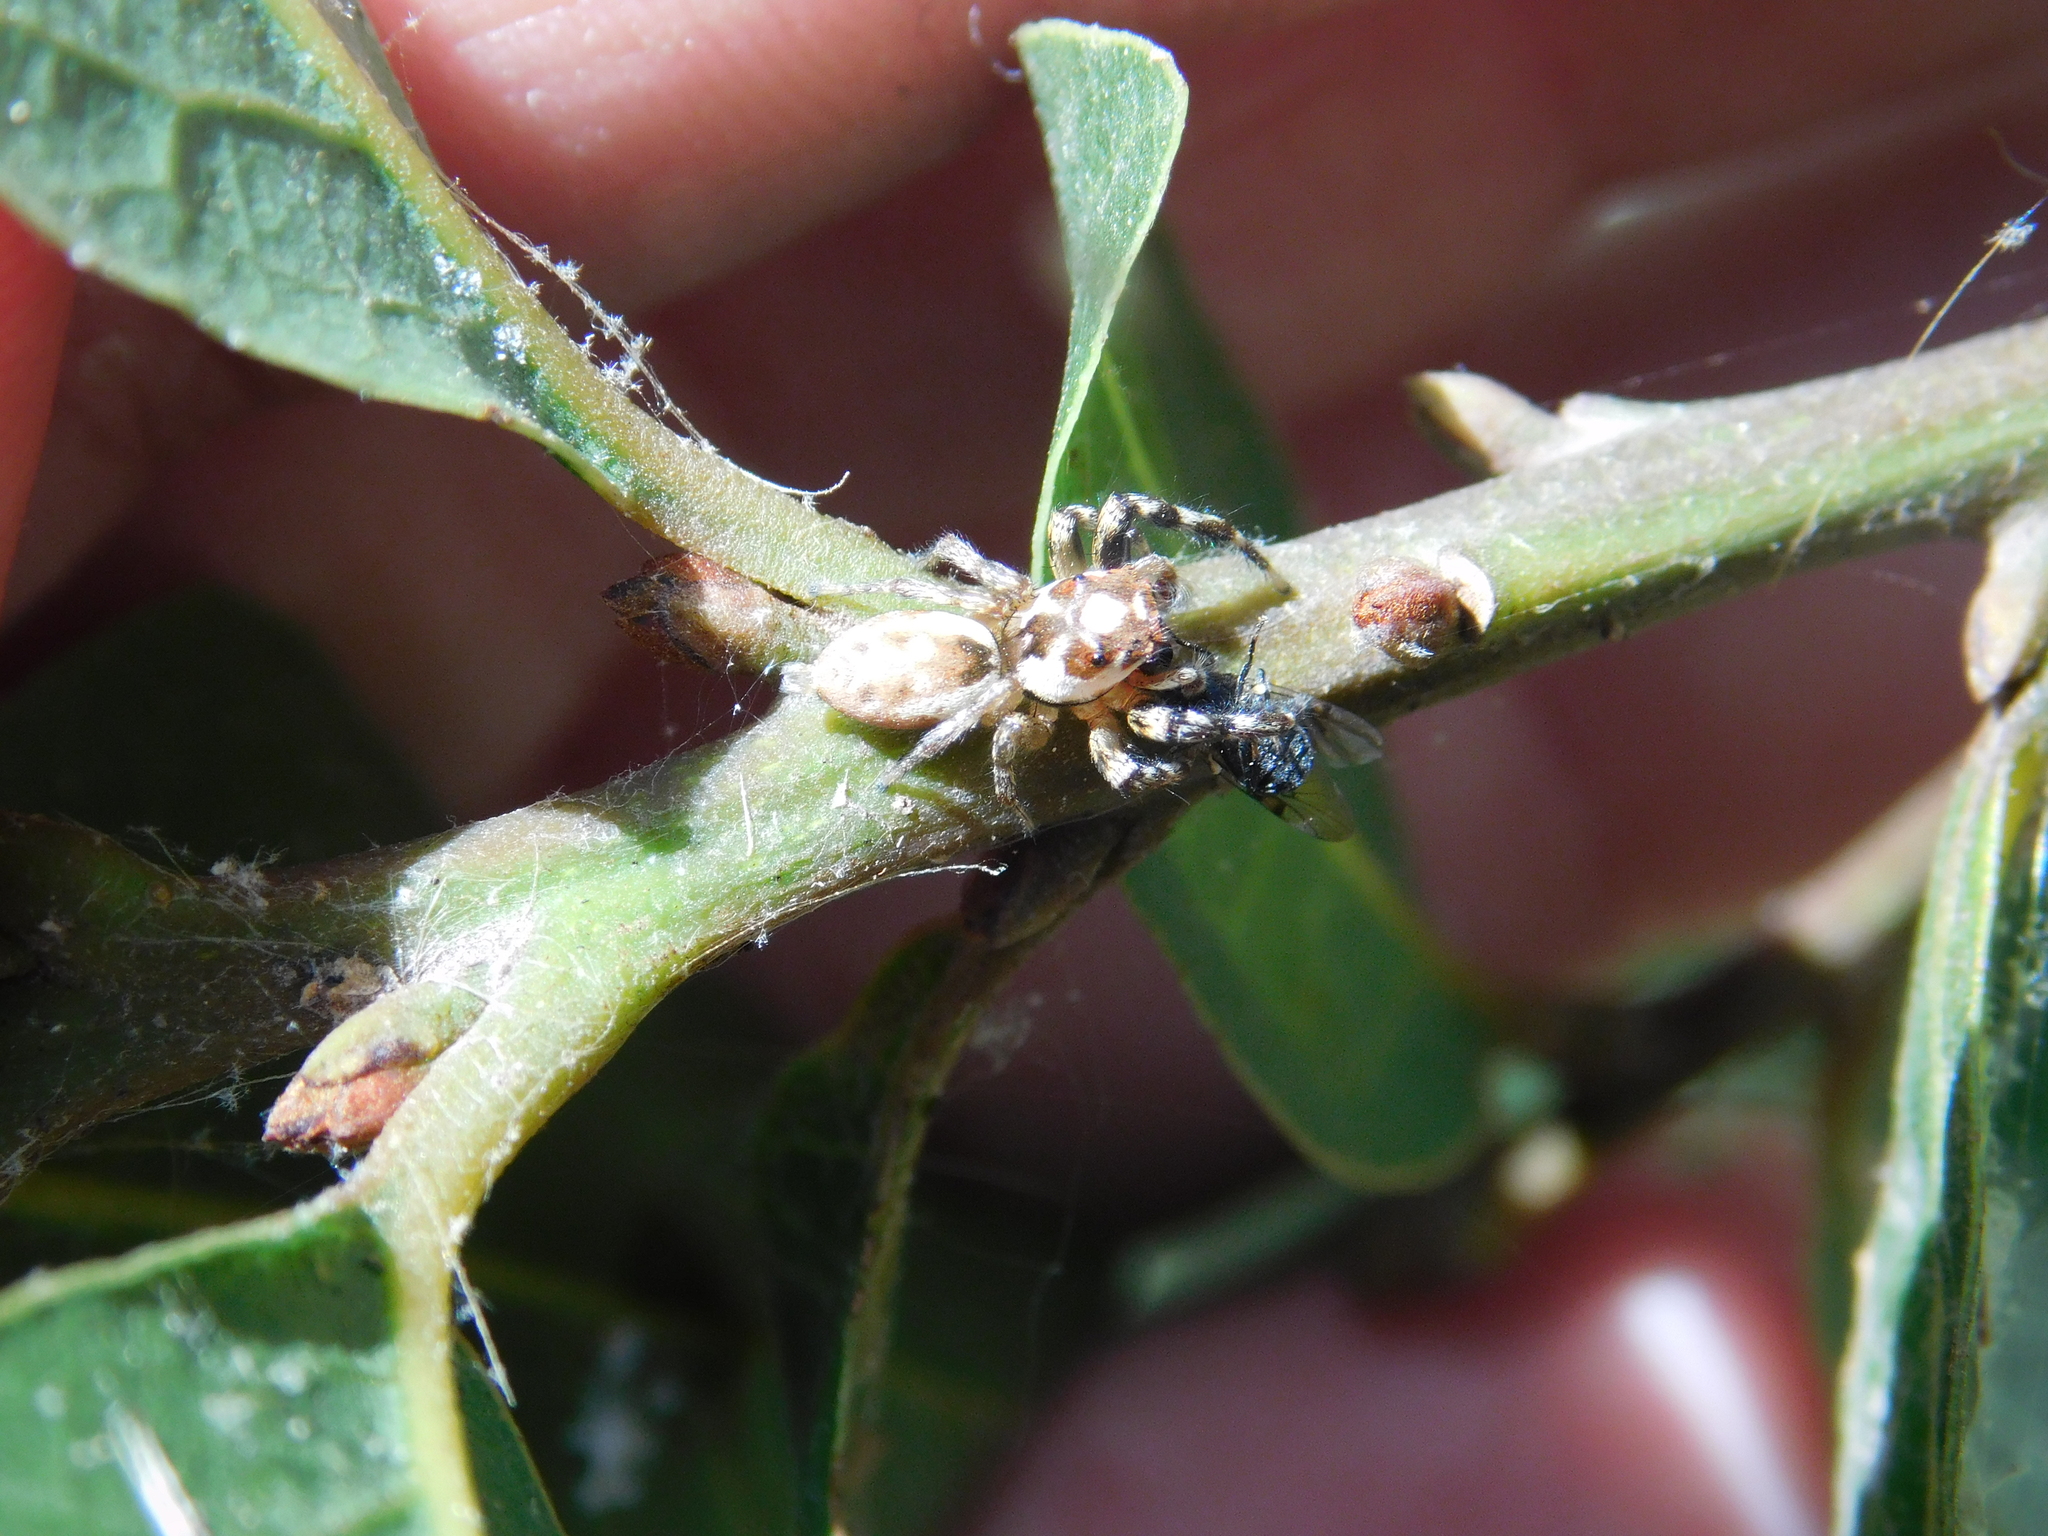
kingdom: Animalia
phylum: Arthropoda
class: Arachnida
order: Araneae
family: Salticidae
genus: Chira
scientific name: Chira gounellei
